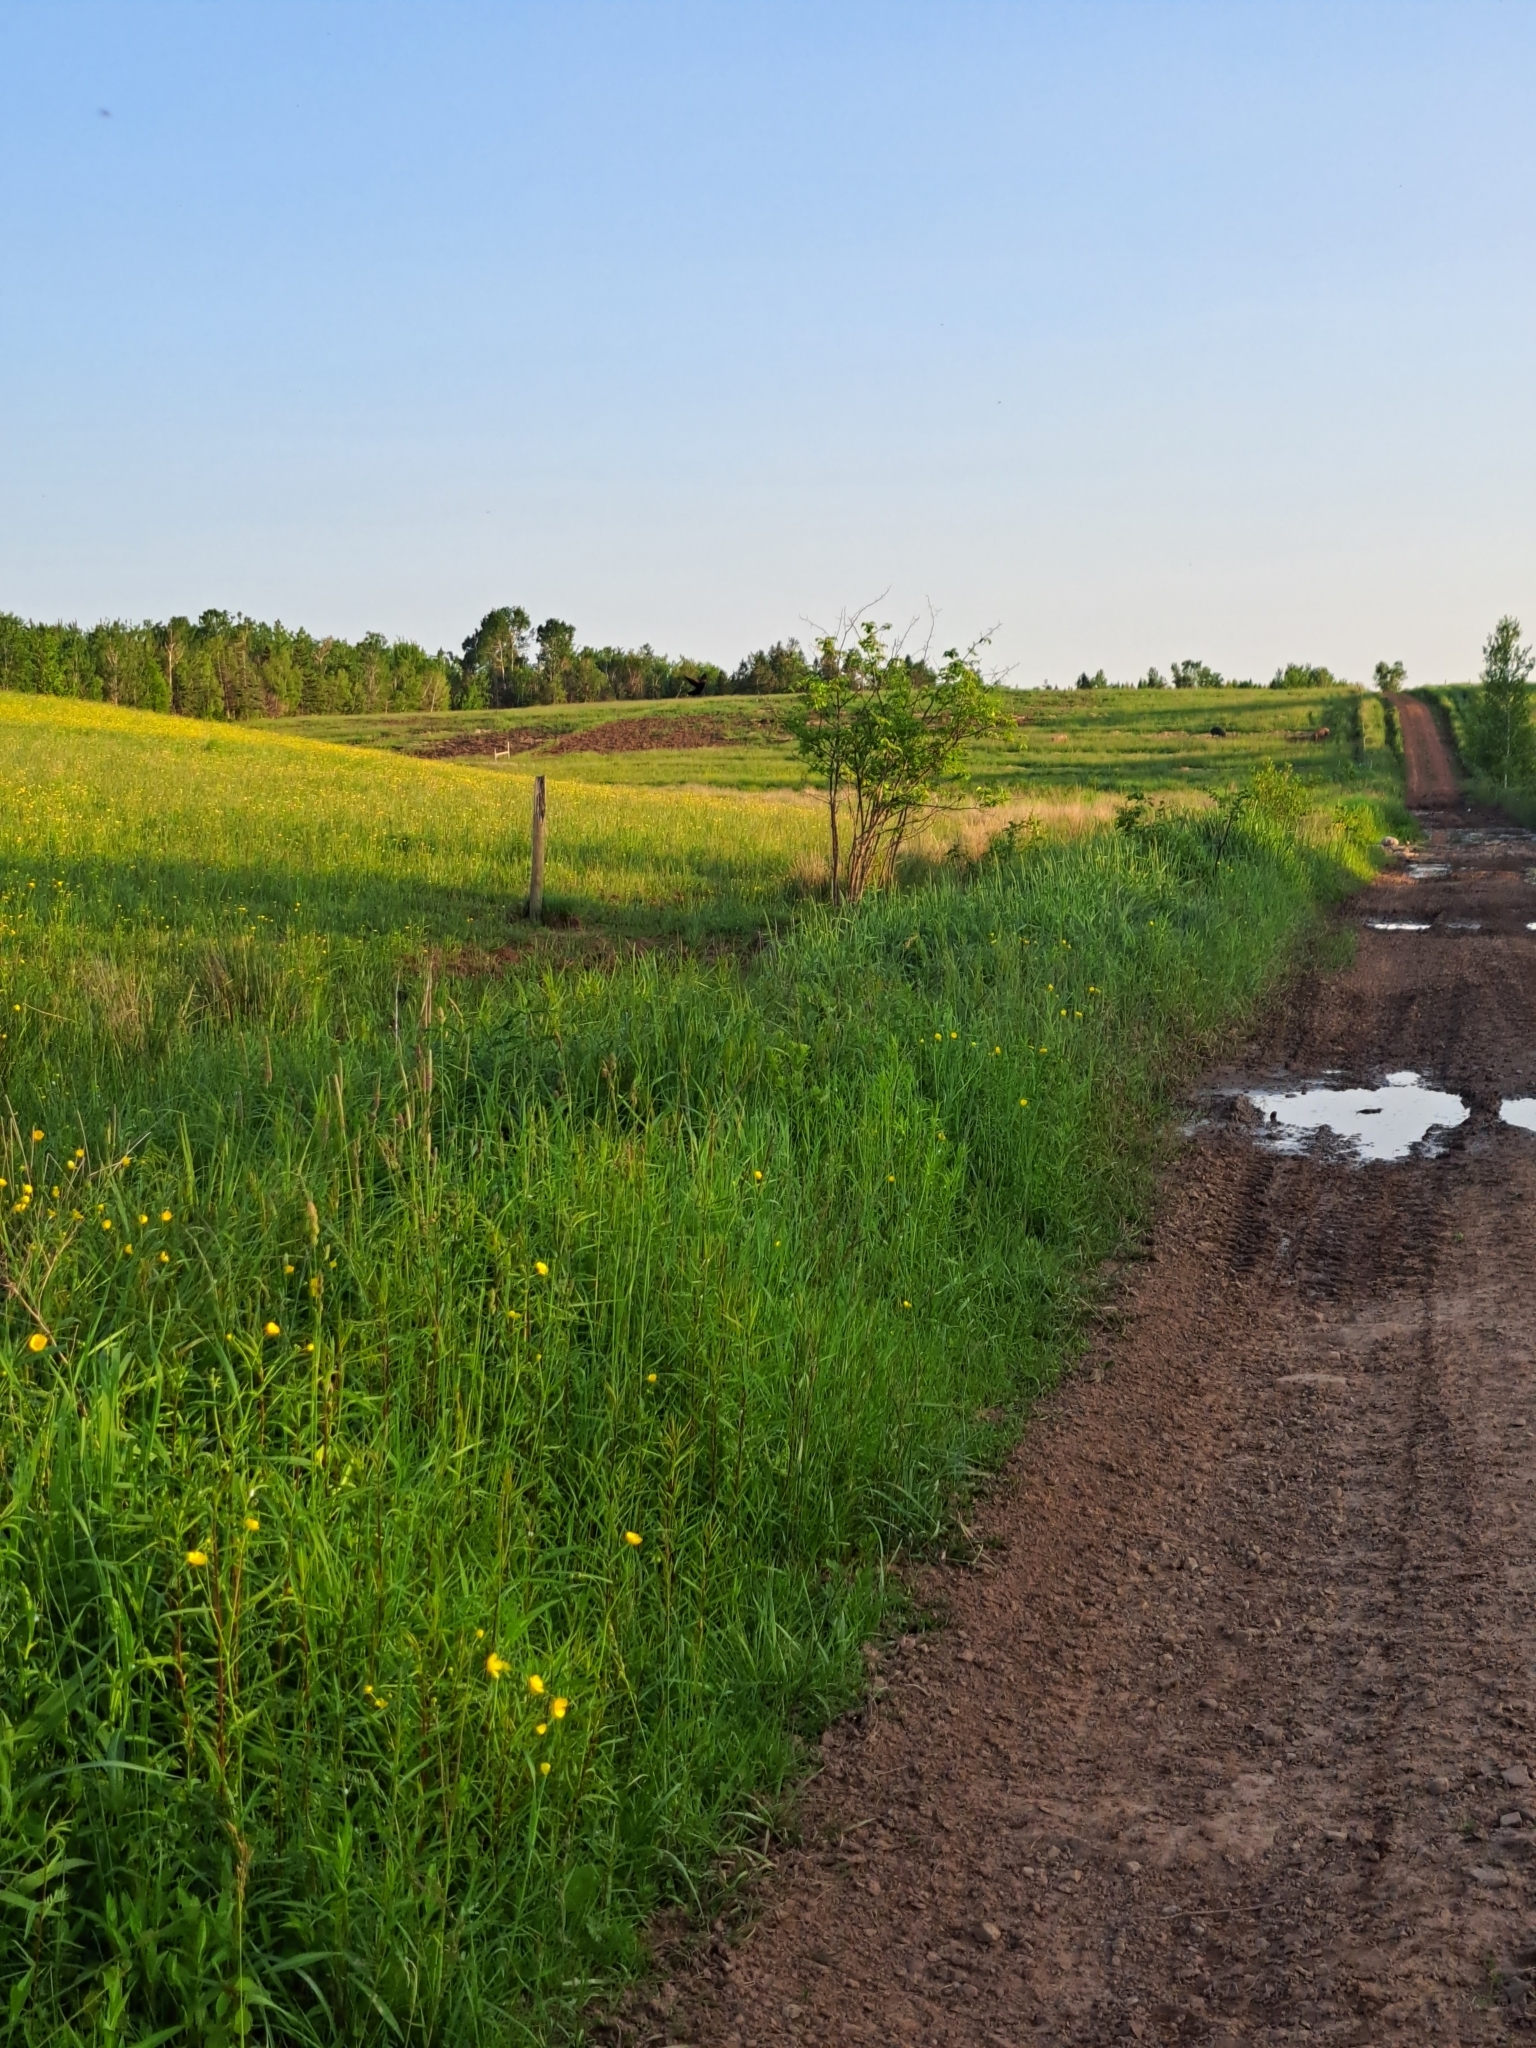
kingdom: Animalia
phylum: Chordata
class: Aves
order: Passeriformes
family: Icteridae
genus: Agelaius
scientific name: Agelaius phoeniceus
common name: Red-winged blackbird
